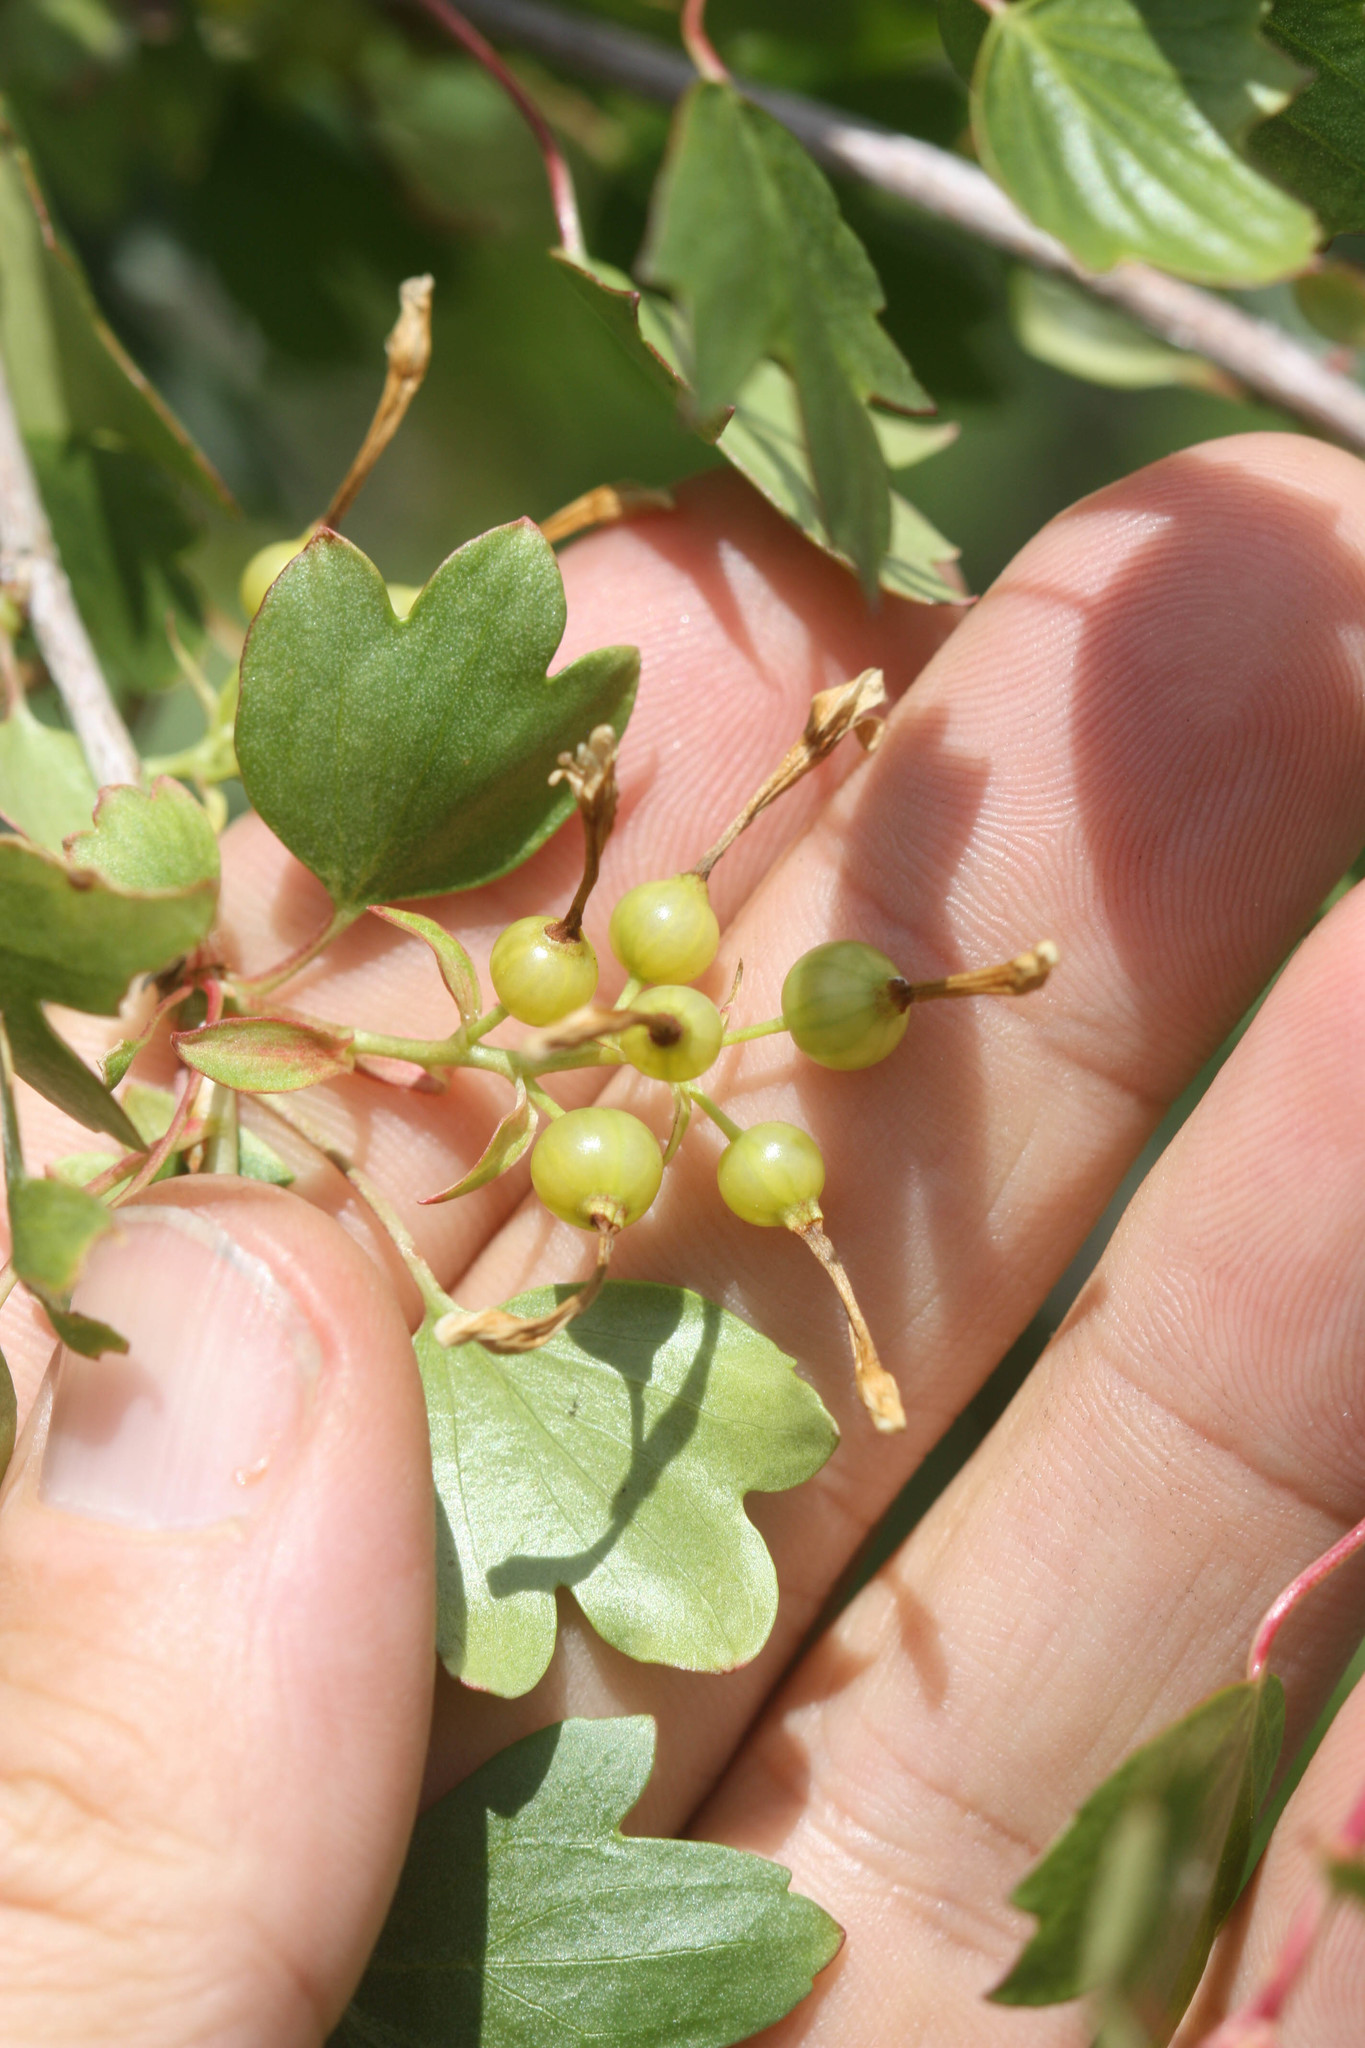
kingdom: Plantae
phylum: Tracheophyta
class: Magnoliopsida
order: Saxifragales
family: Grossulariaceae
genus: Ribes
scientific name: Ribes aureum
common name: Golden currant
